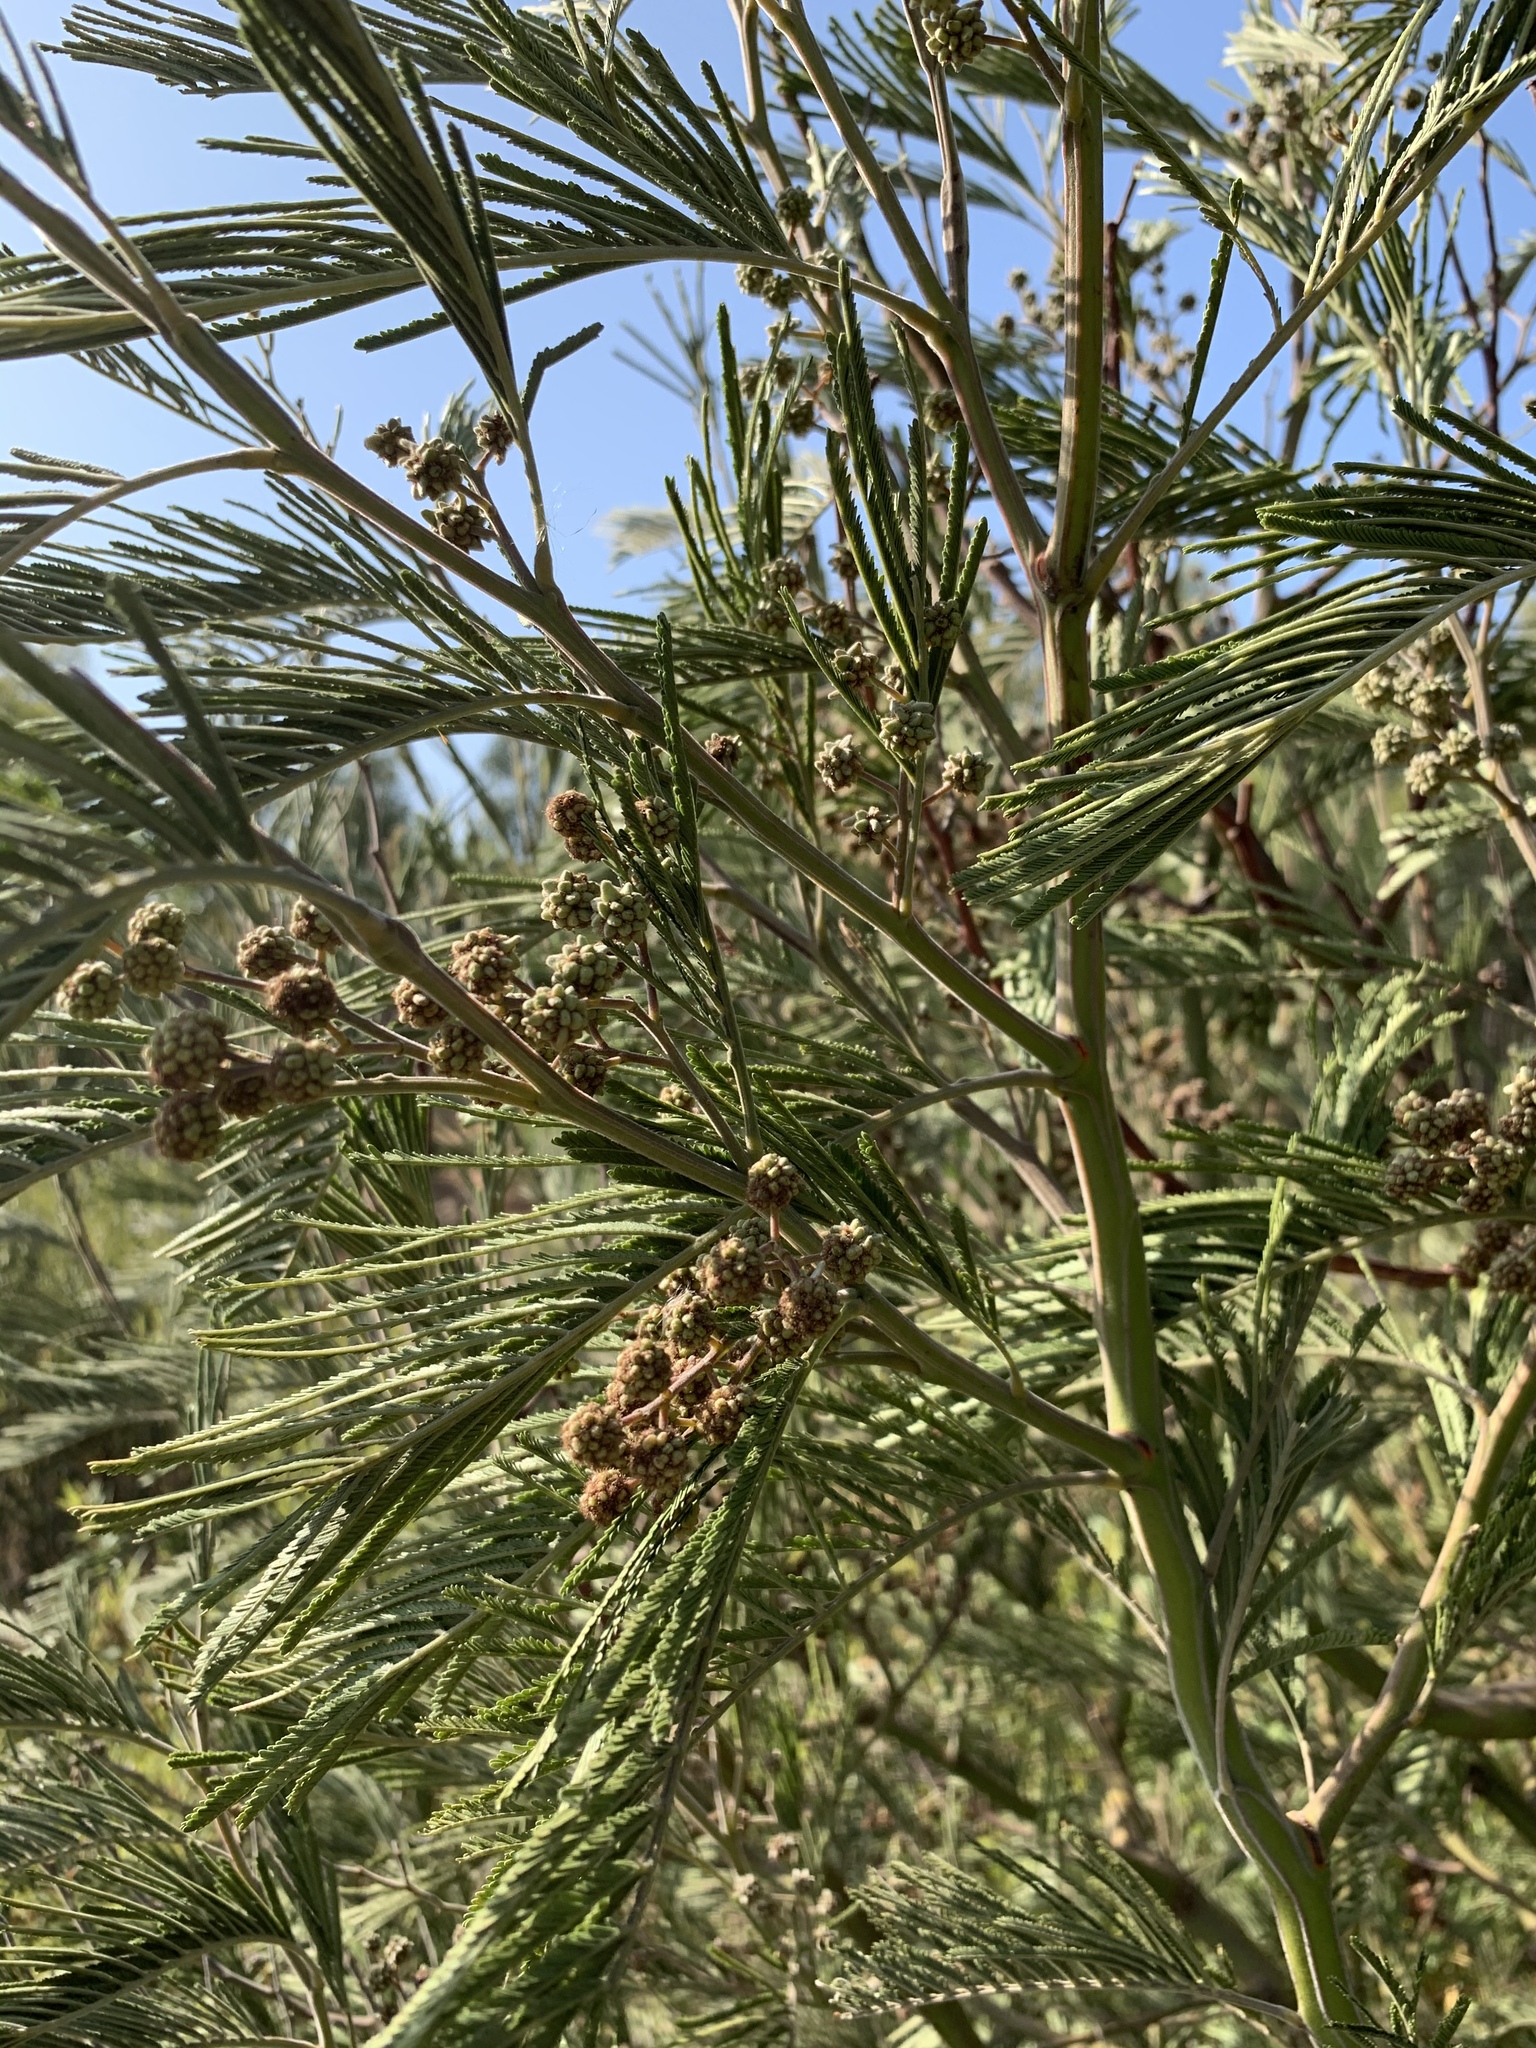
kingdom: Plantae
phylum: Tracheophyta
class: Magnoliopsida
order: Fabales
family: Fabaceae
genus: Acacia
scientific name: Acacia mearnsii
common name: Black wattle
